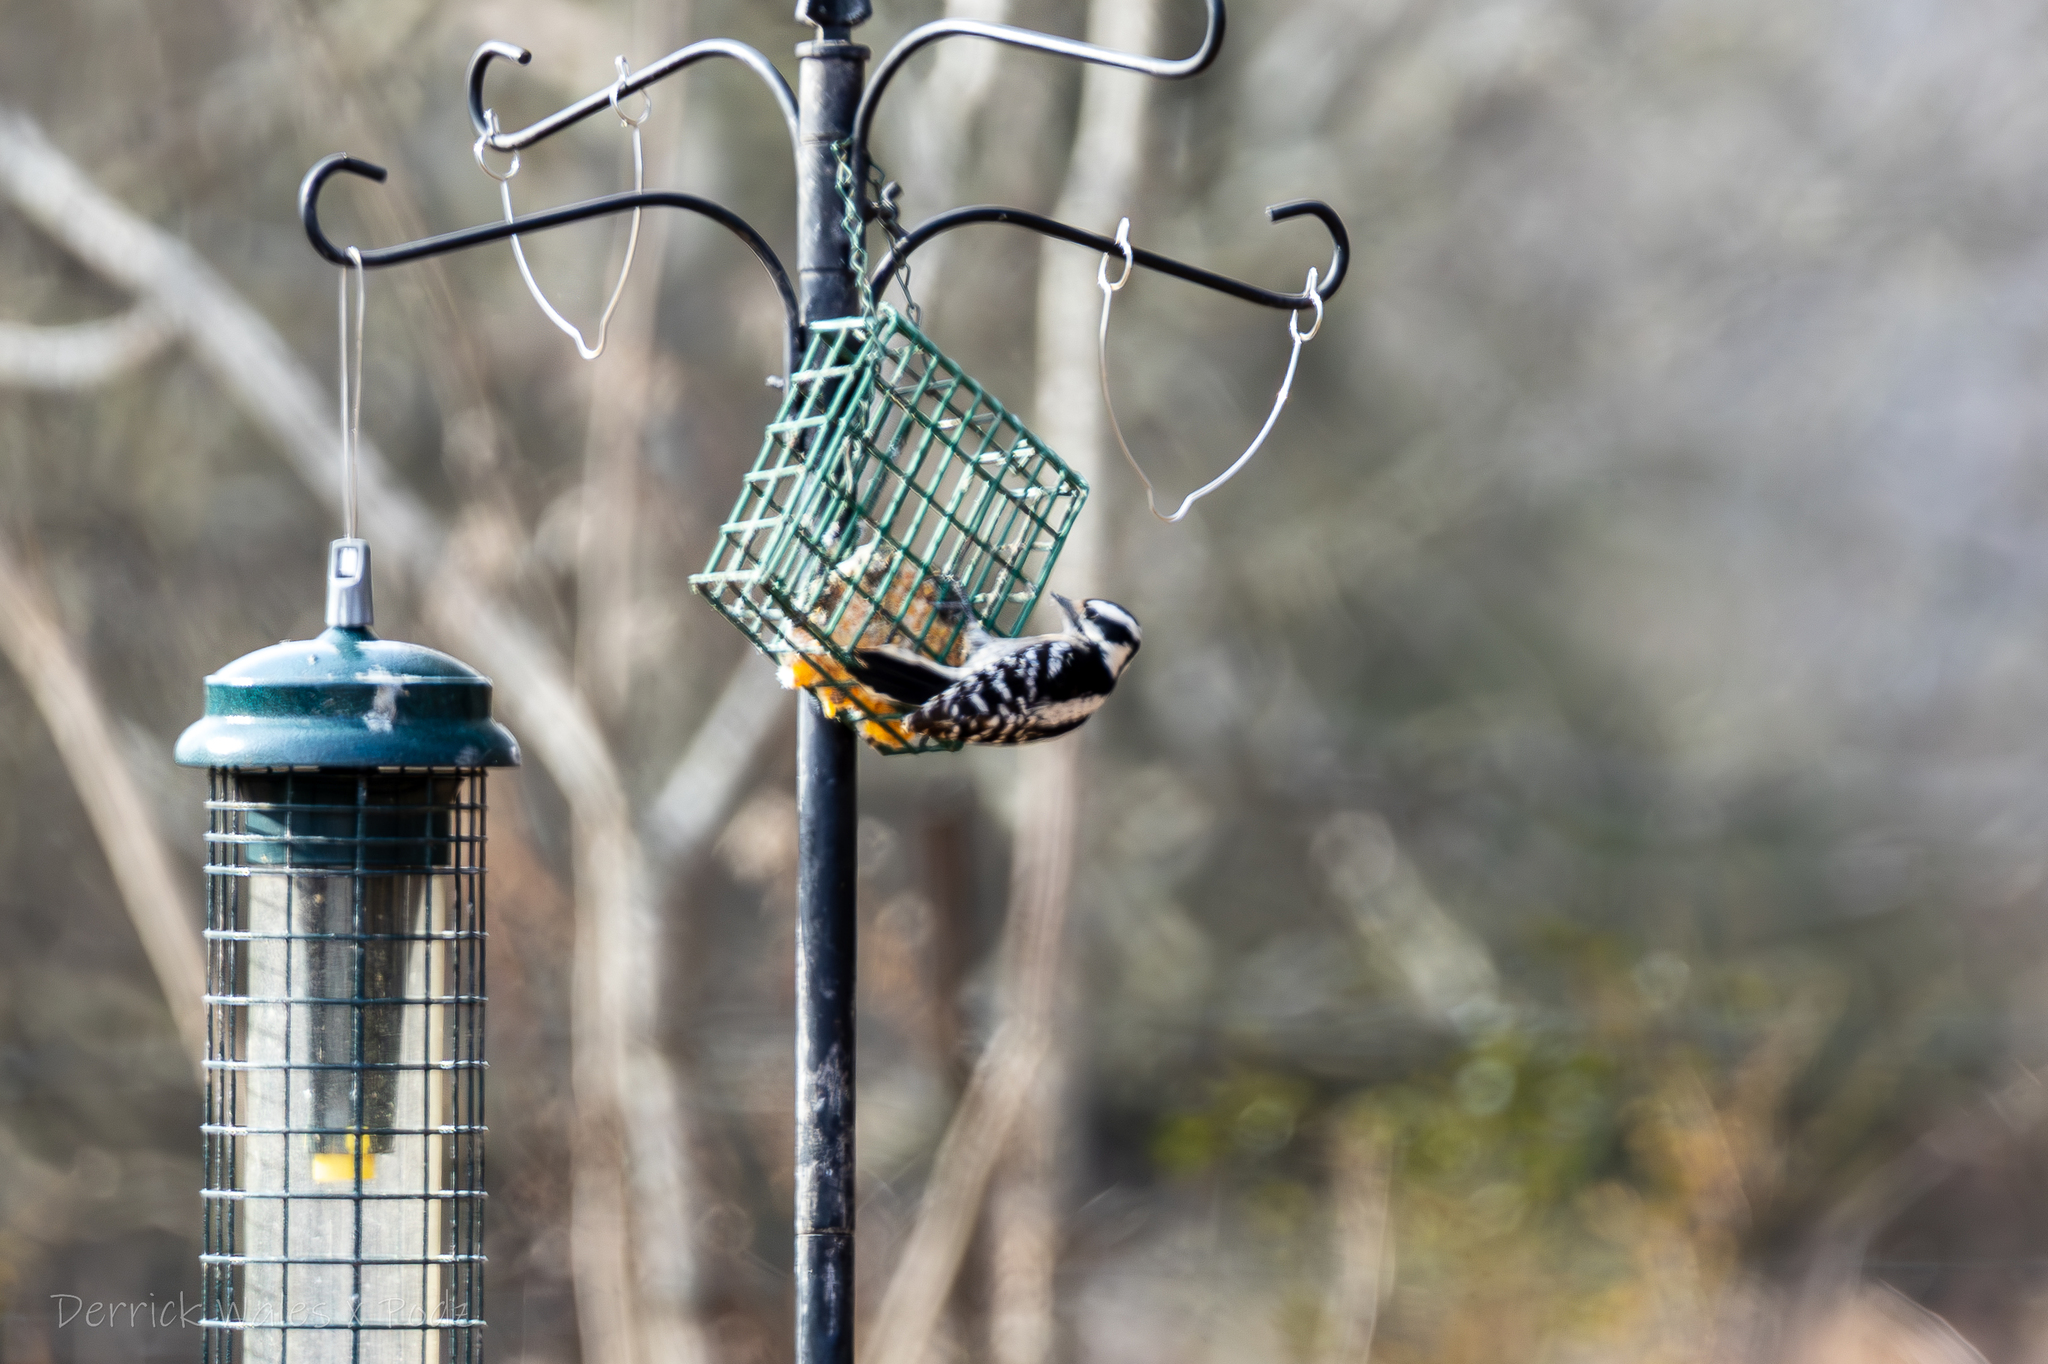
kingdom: Animalia
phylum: Chordata
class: Aves
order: Piciformes
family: Picidae
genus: Dryobates
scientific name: Dryobates pubescens
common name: Downy woodpecker
